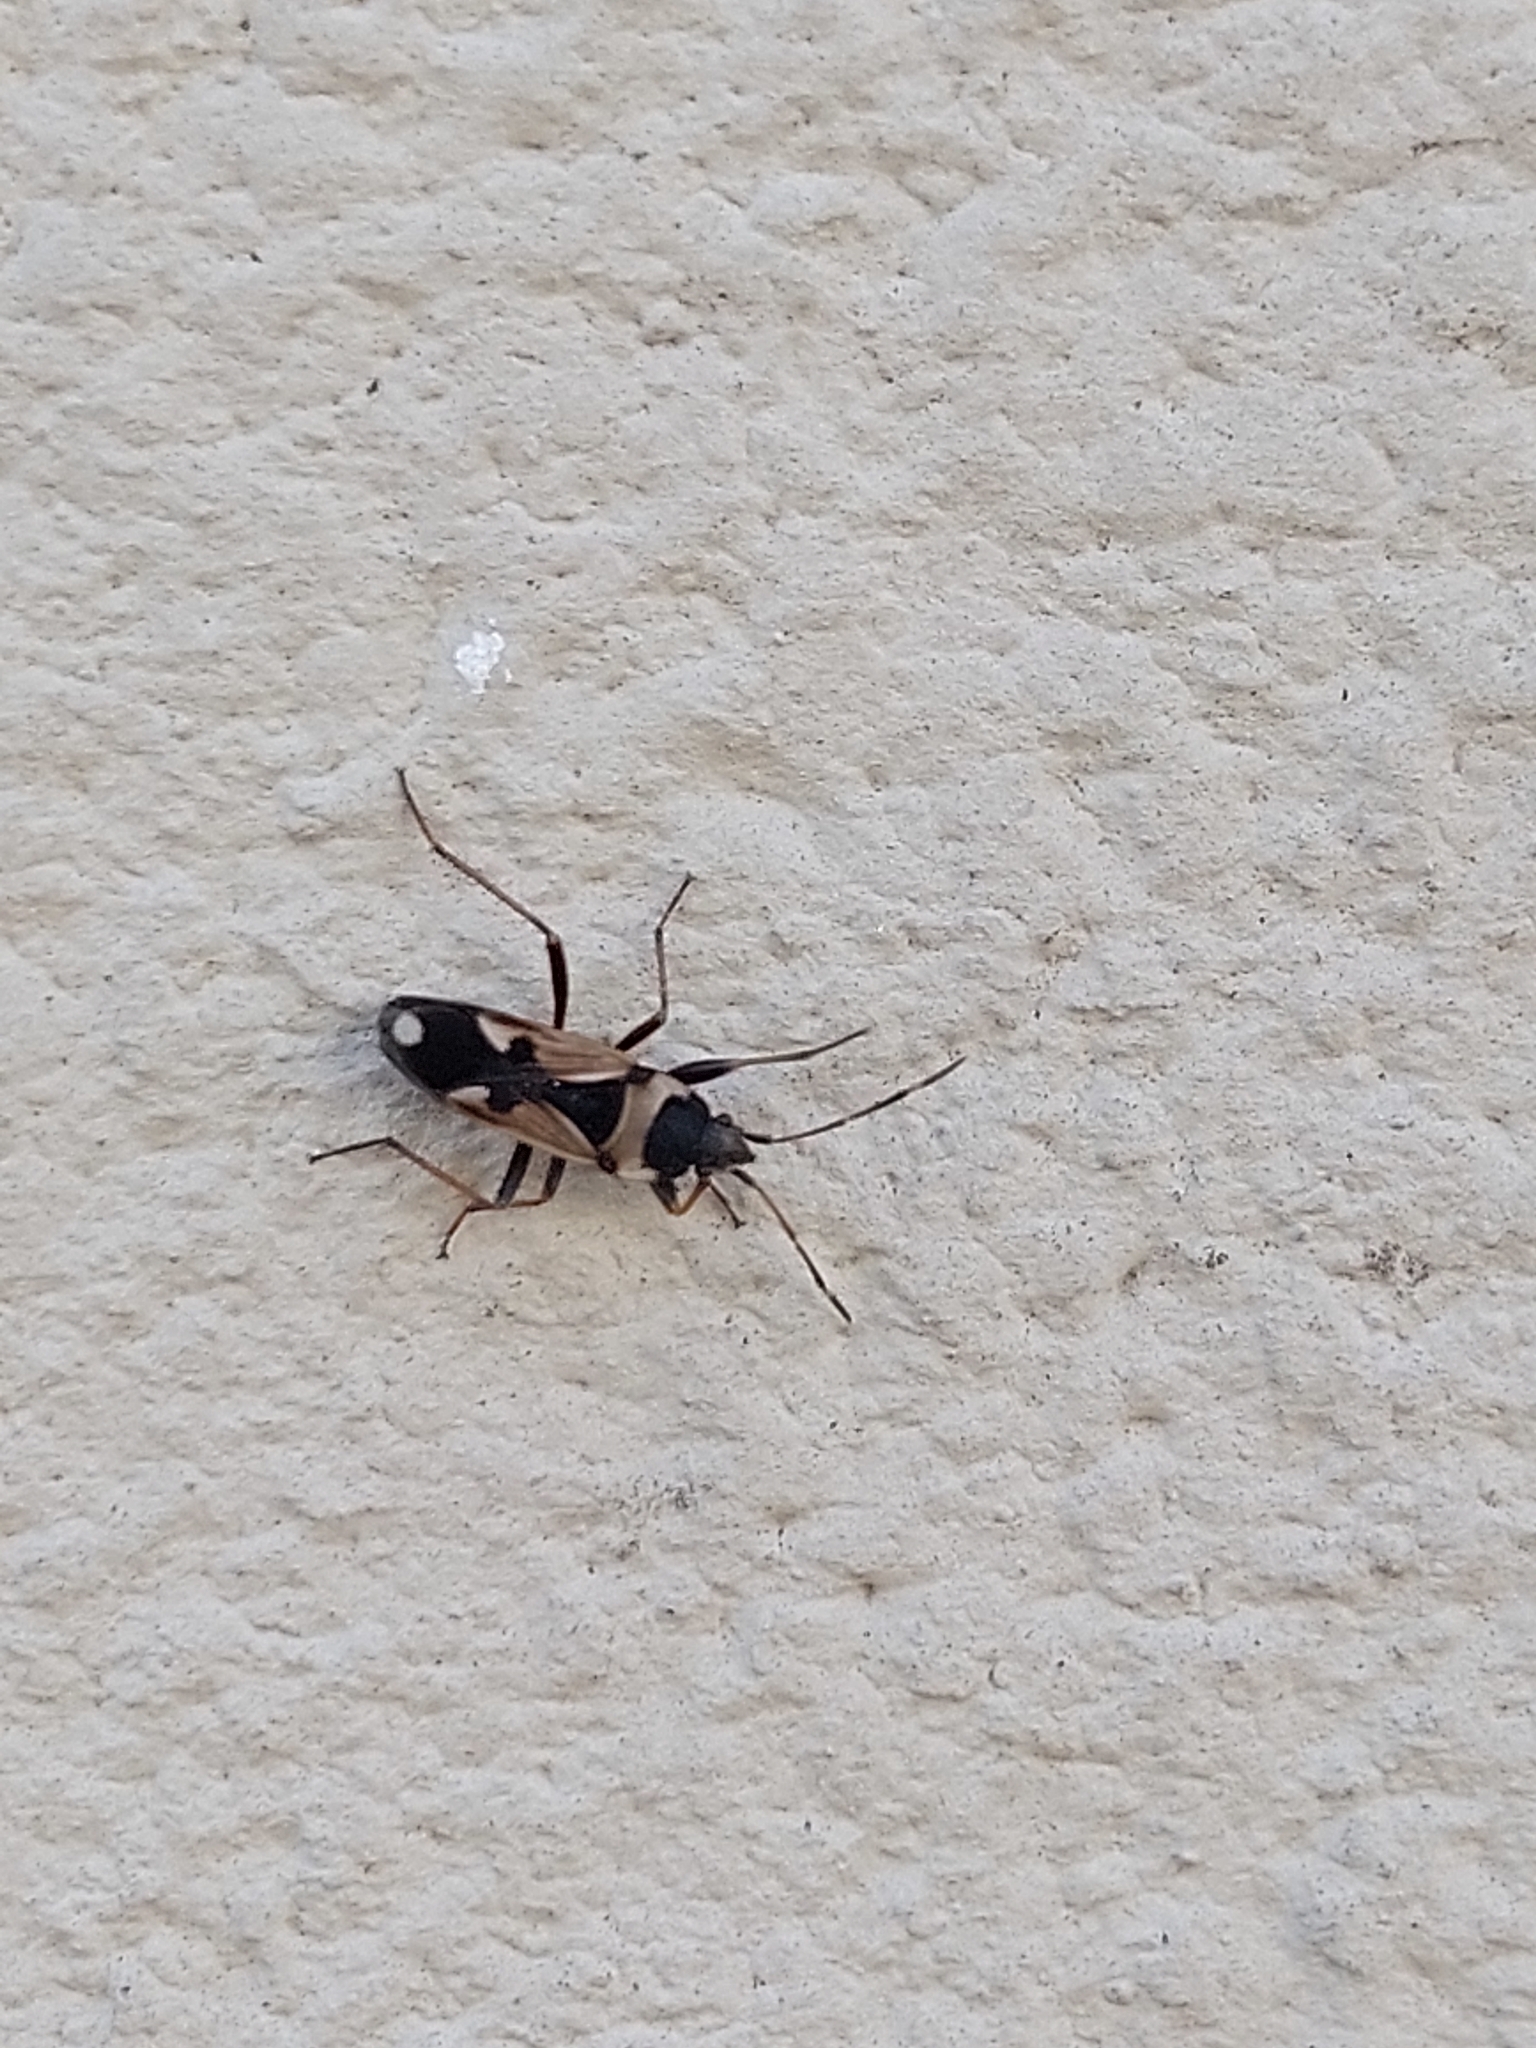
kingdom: Animalia
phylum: Arthropoda
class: Insecta
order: Hemiptera
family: Rhyparochromidae
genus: Raglius
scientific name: Raglius confusus
